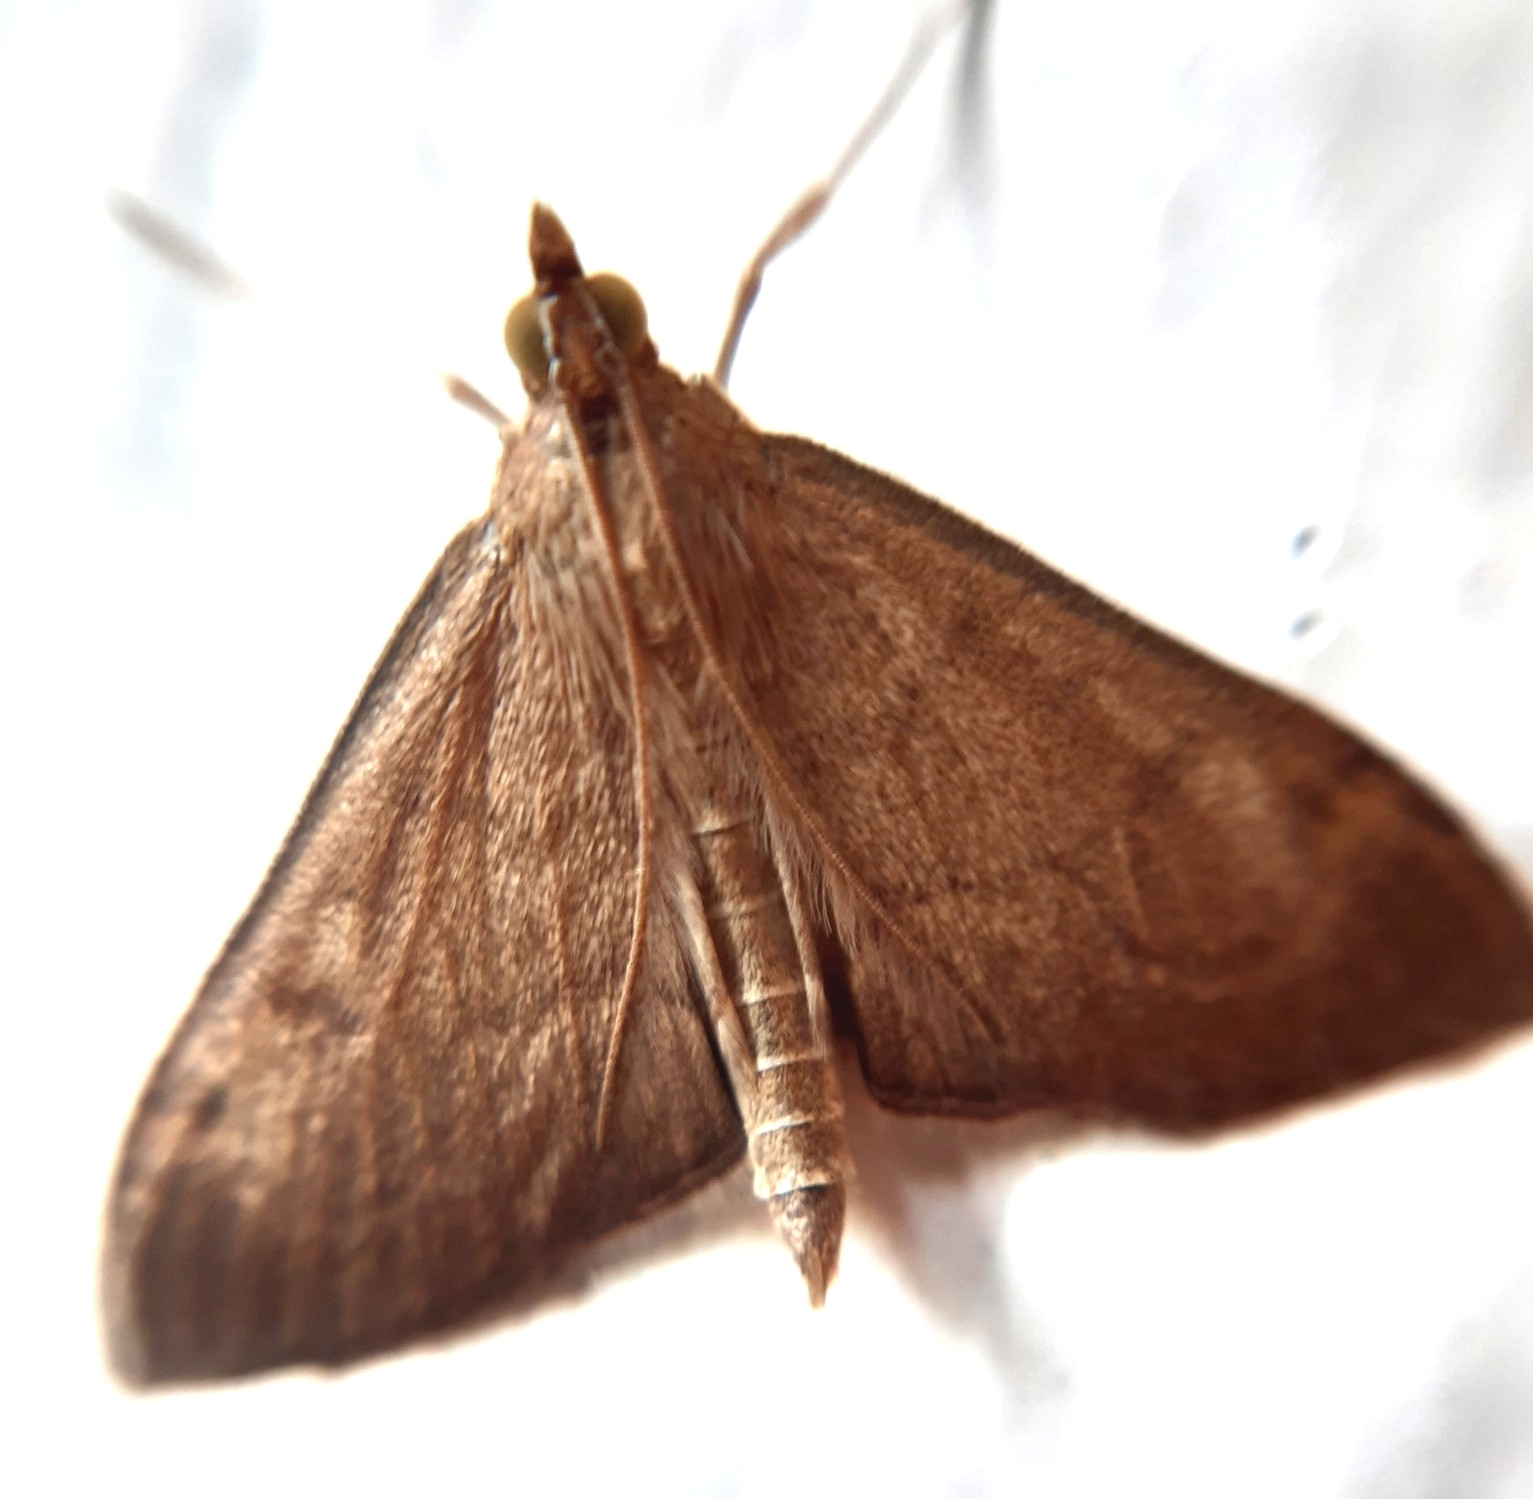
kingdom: Animalia
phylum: Arthropoda
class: Insecta
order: Lepidoptera
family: Crambidae
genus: Anania
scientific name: Anania terrealis
